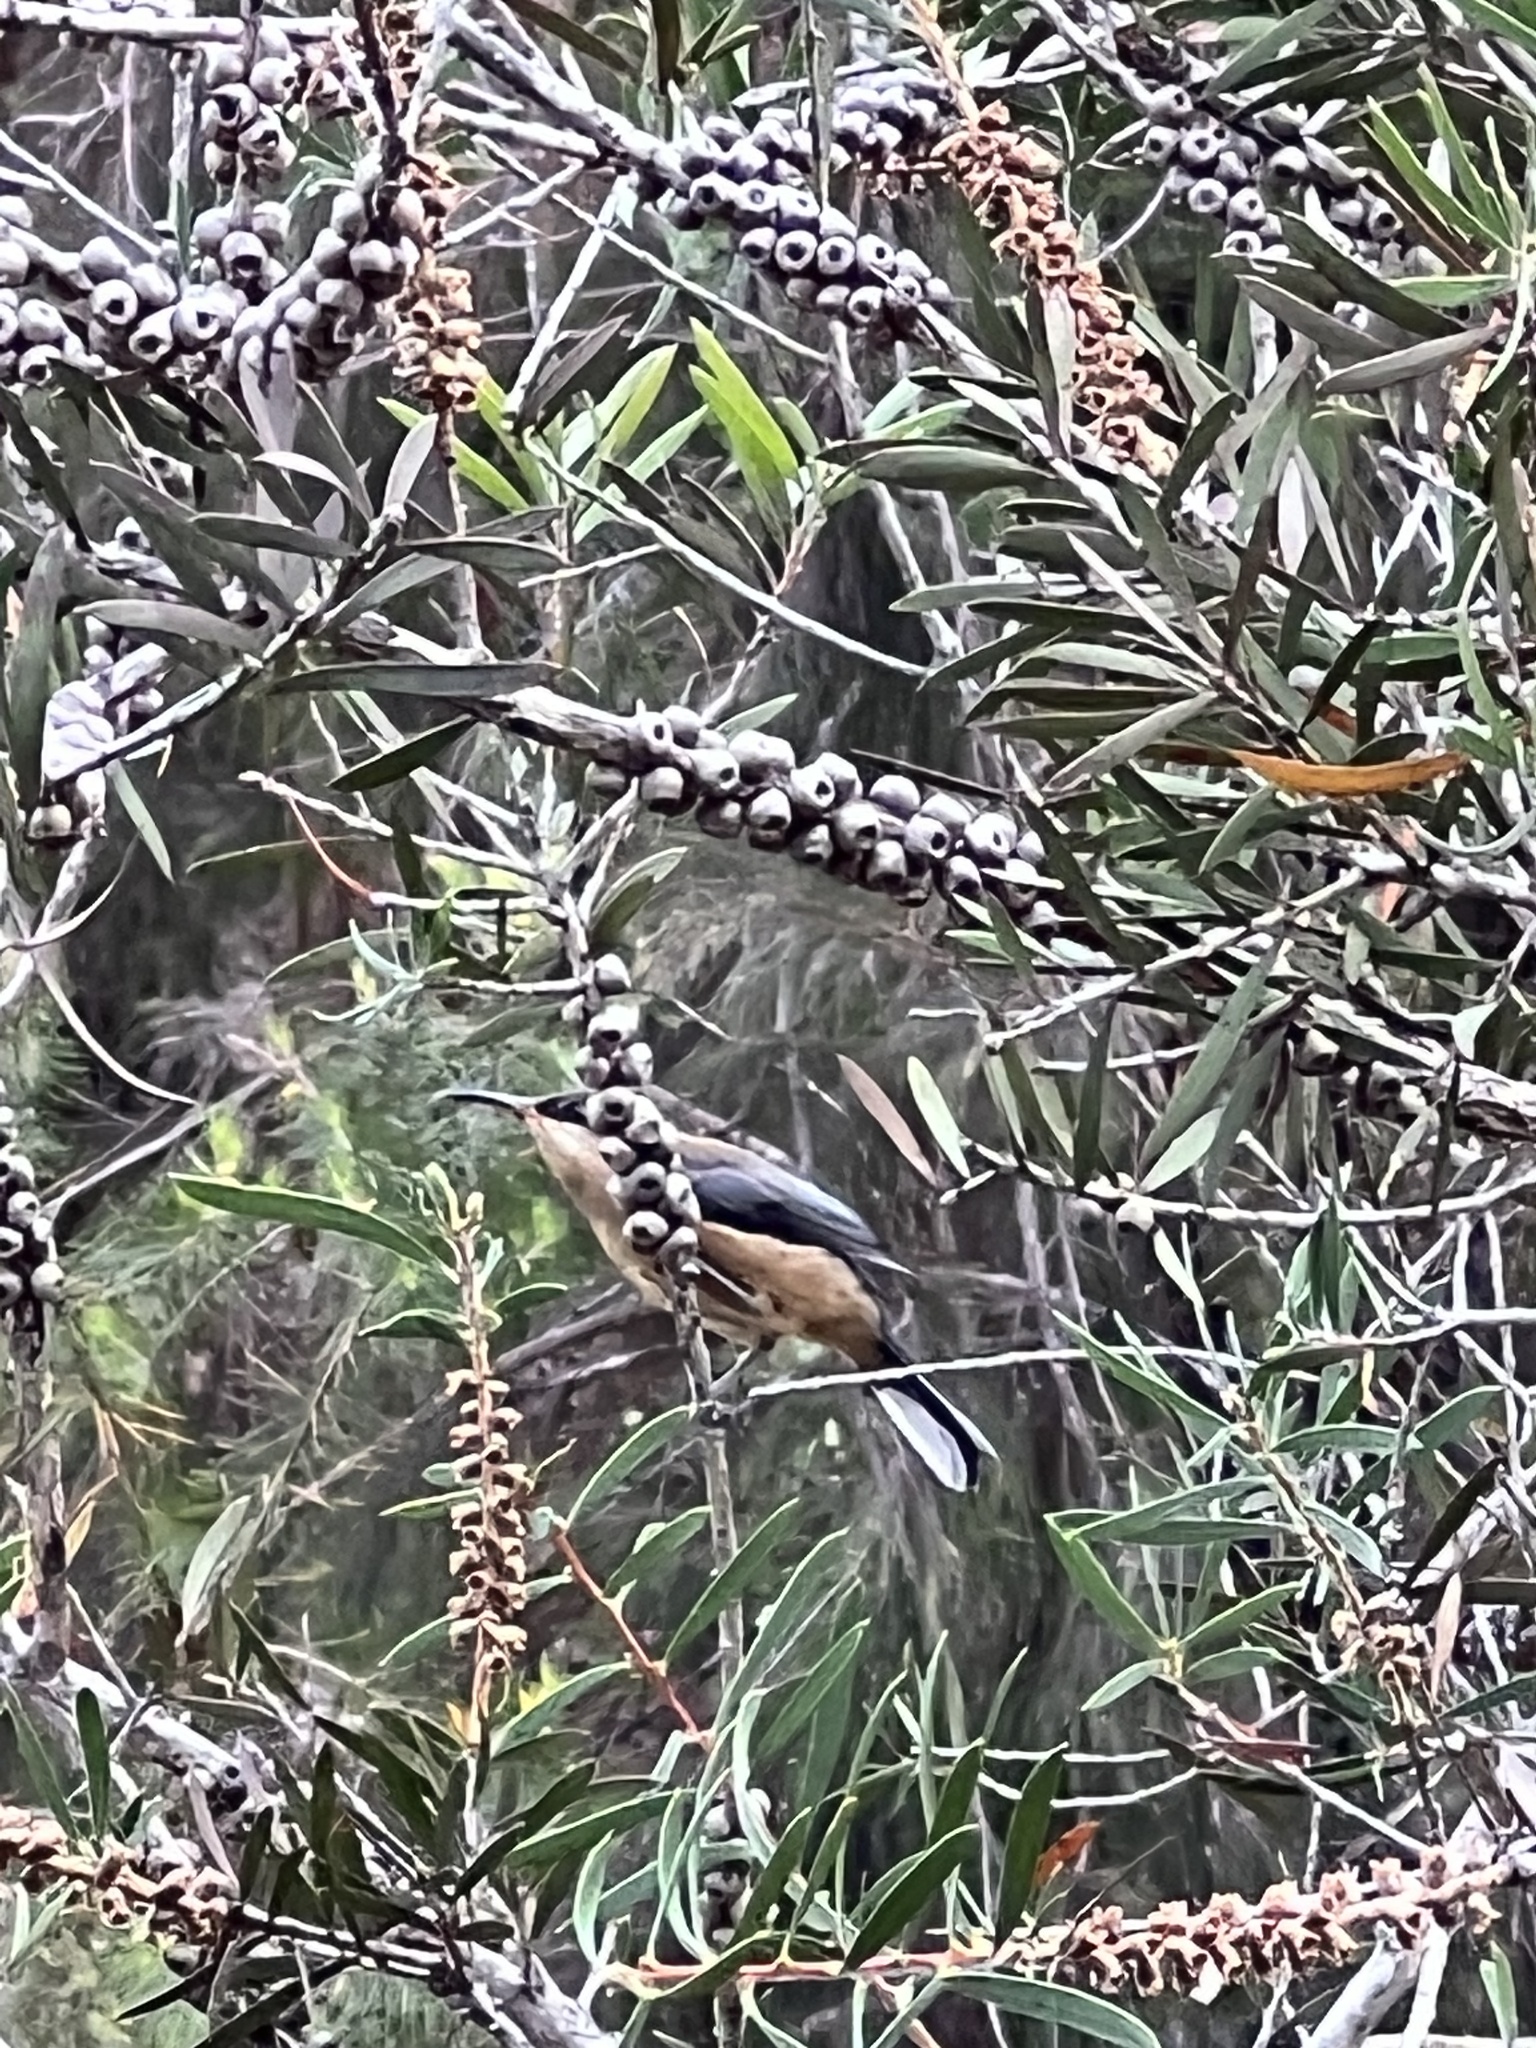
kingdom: Animalia
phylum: Chordata
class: Aves
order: Passeriformes
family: Meliphagidae
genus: Acanthorhynchus
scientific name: Acanthorhynchus tenuirostris
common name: Eastern spinebill
